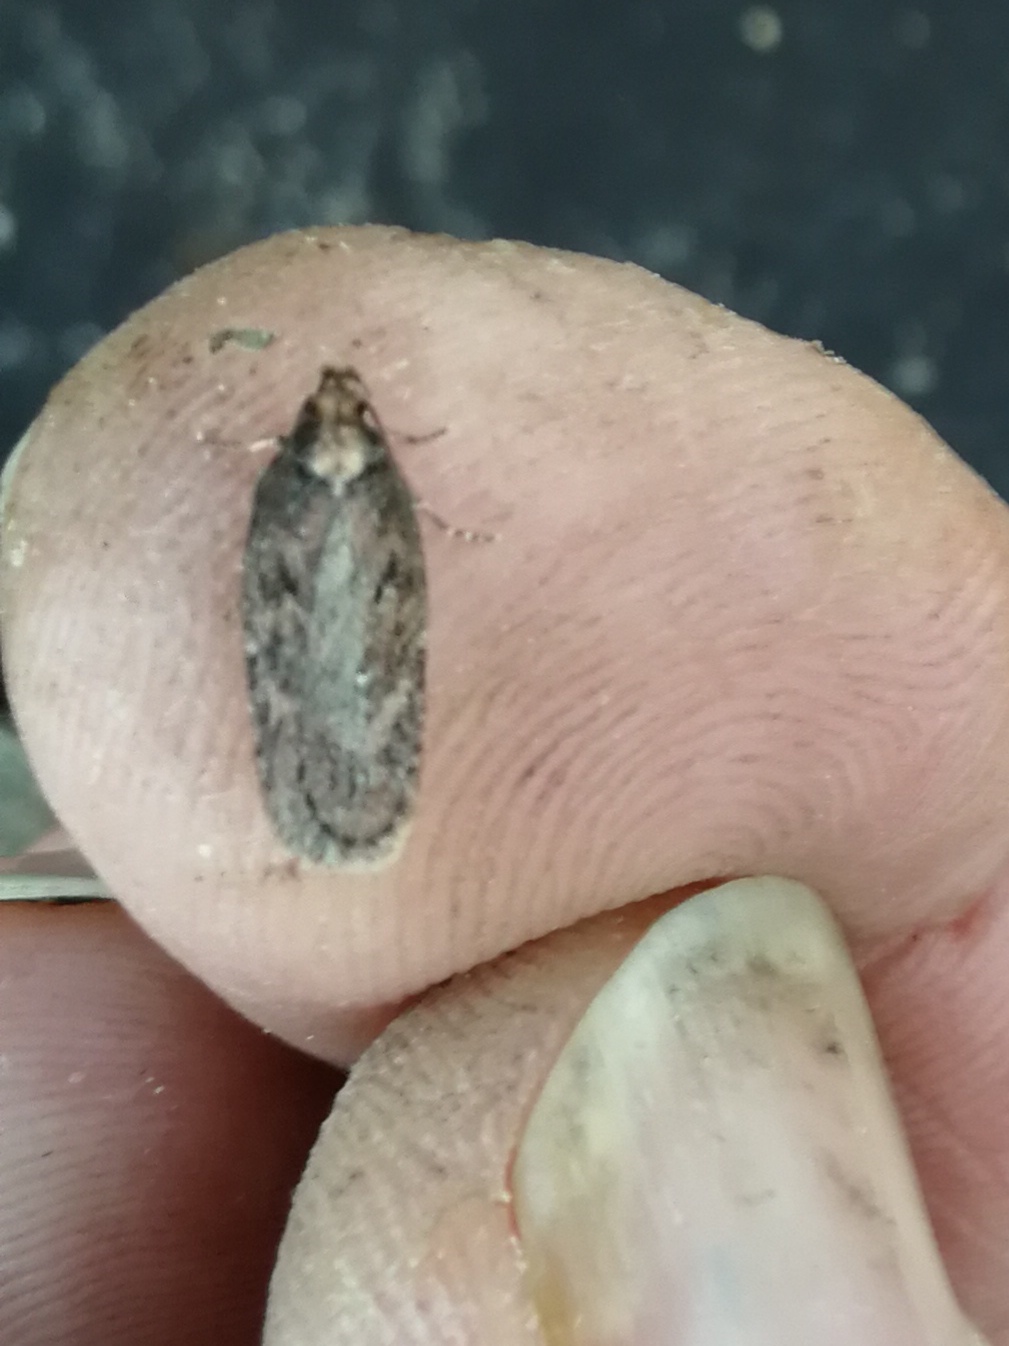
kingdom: Animalia
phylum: Arthropoda
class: Insecta
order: Lepidoptera
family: Depressariidae
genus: Depressaria
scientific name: Depressaria pulcherimella
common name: Pignut flat-body
